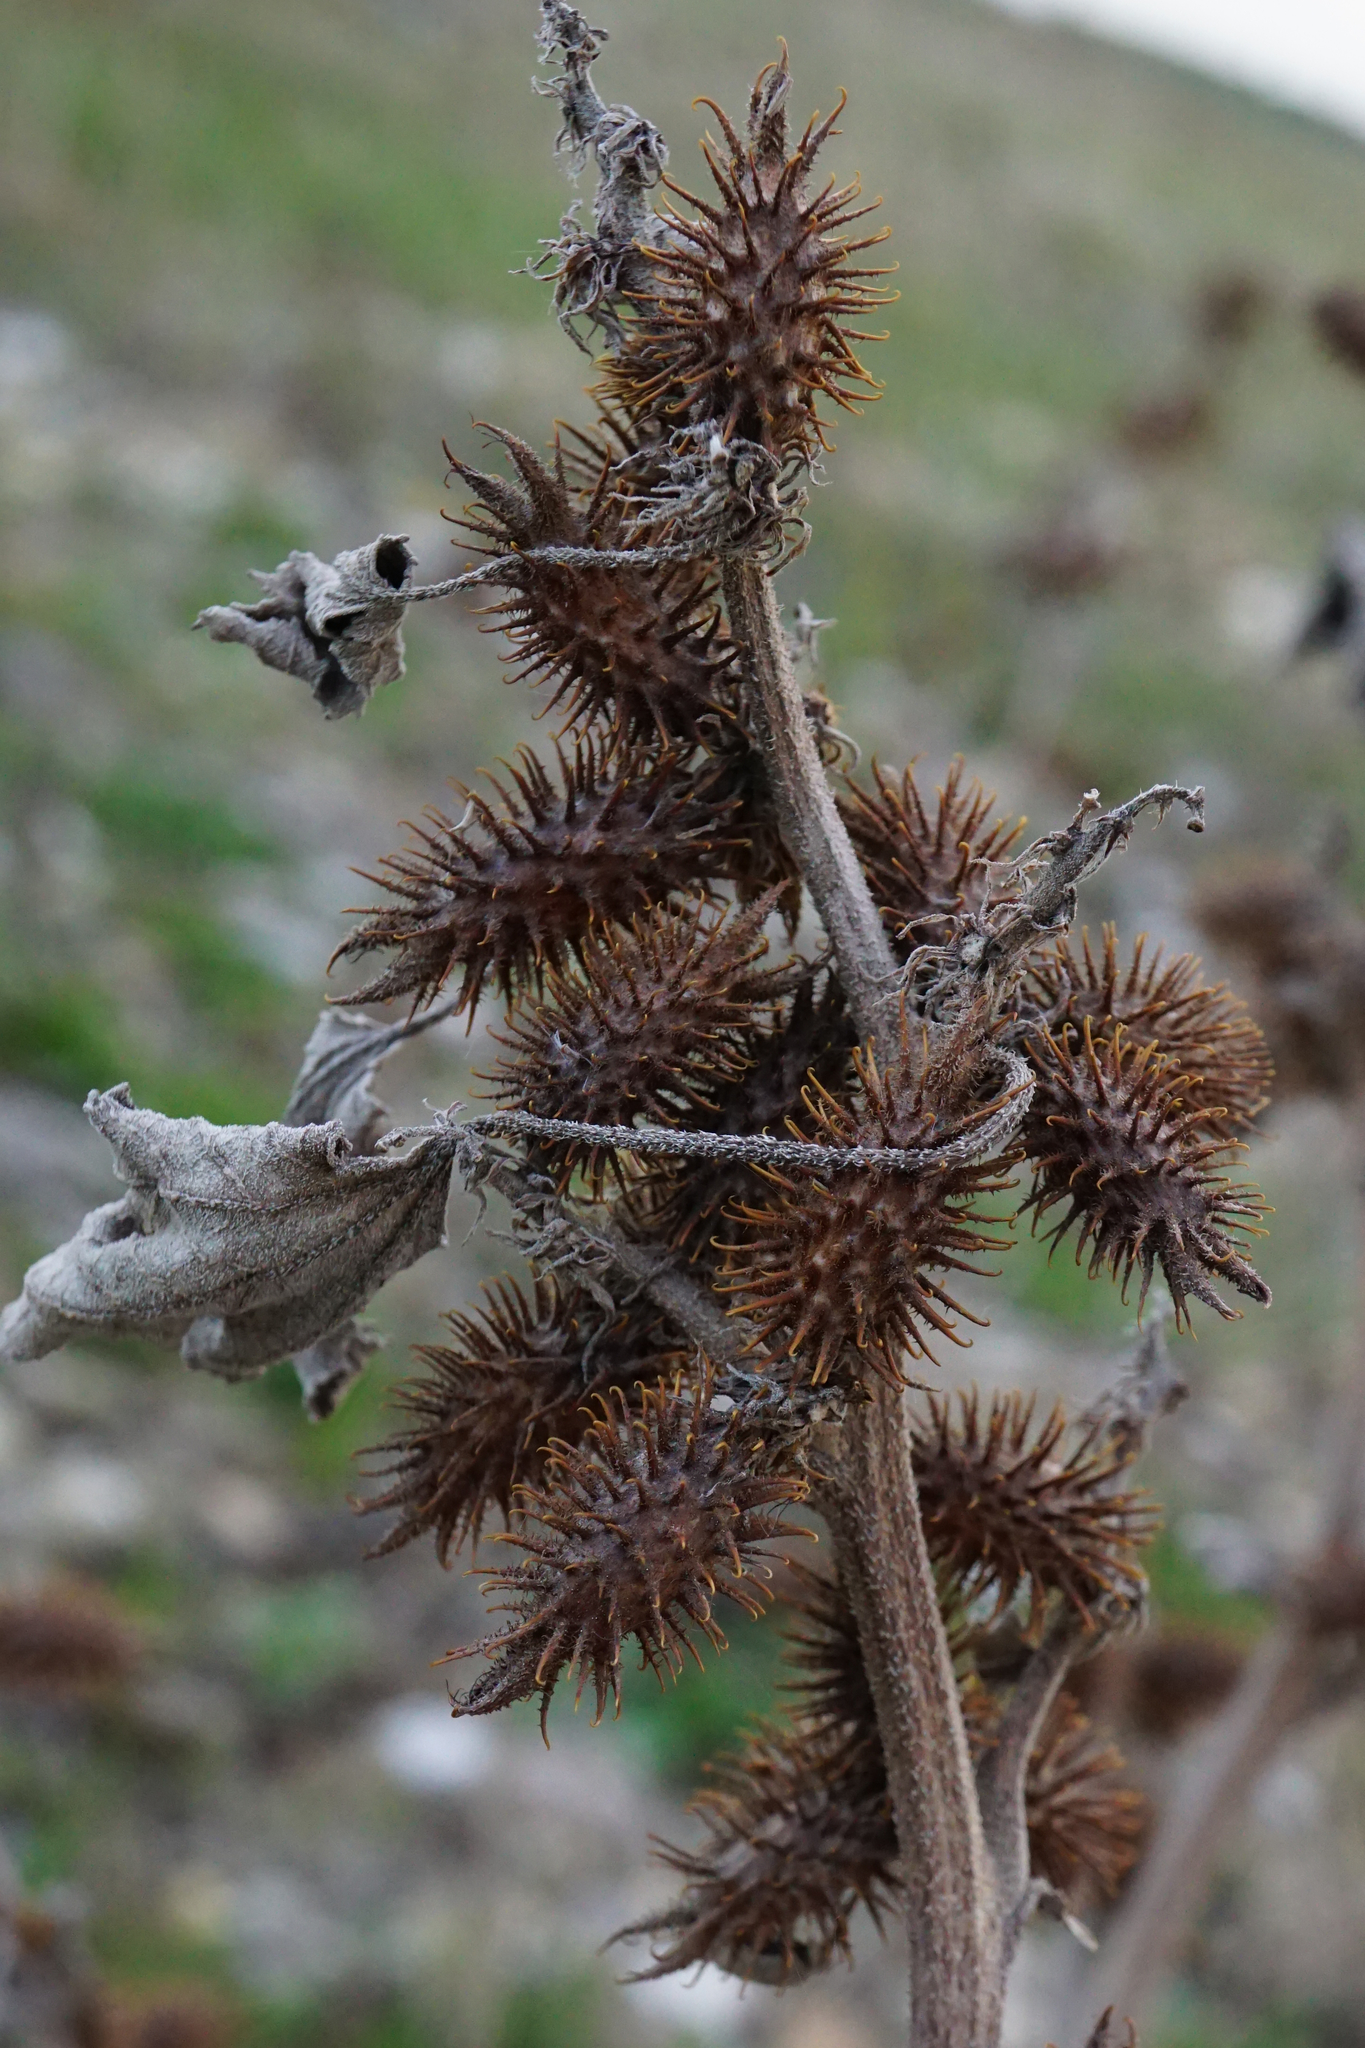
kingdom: Plantae
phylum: Tracheophyta
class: Magnoliopsida
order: Asterales
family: Asteraceae
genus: Xanthium
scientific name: Xanthium strumarium
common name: Rough cocklebur
